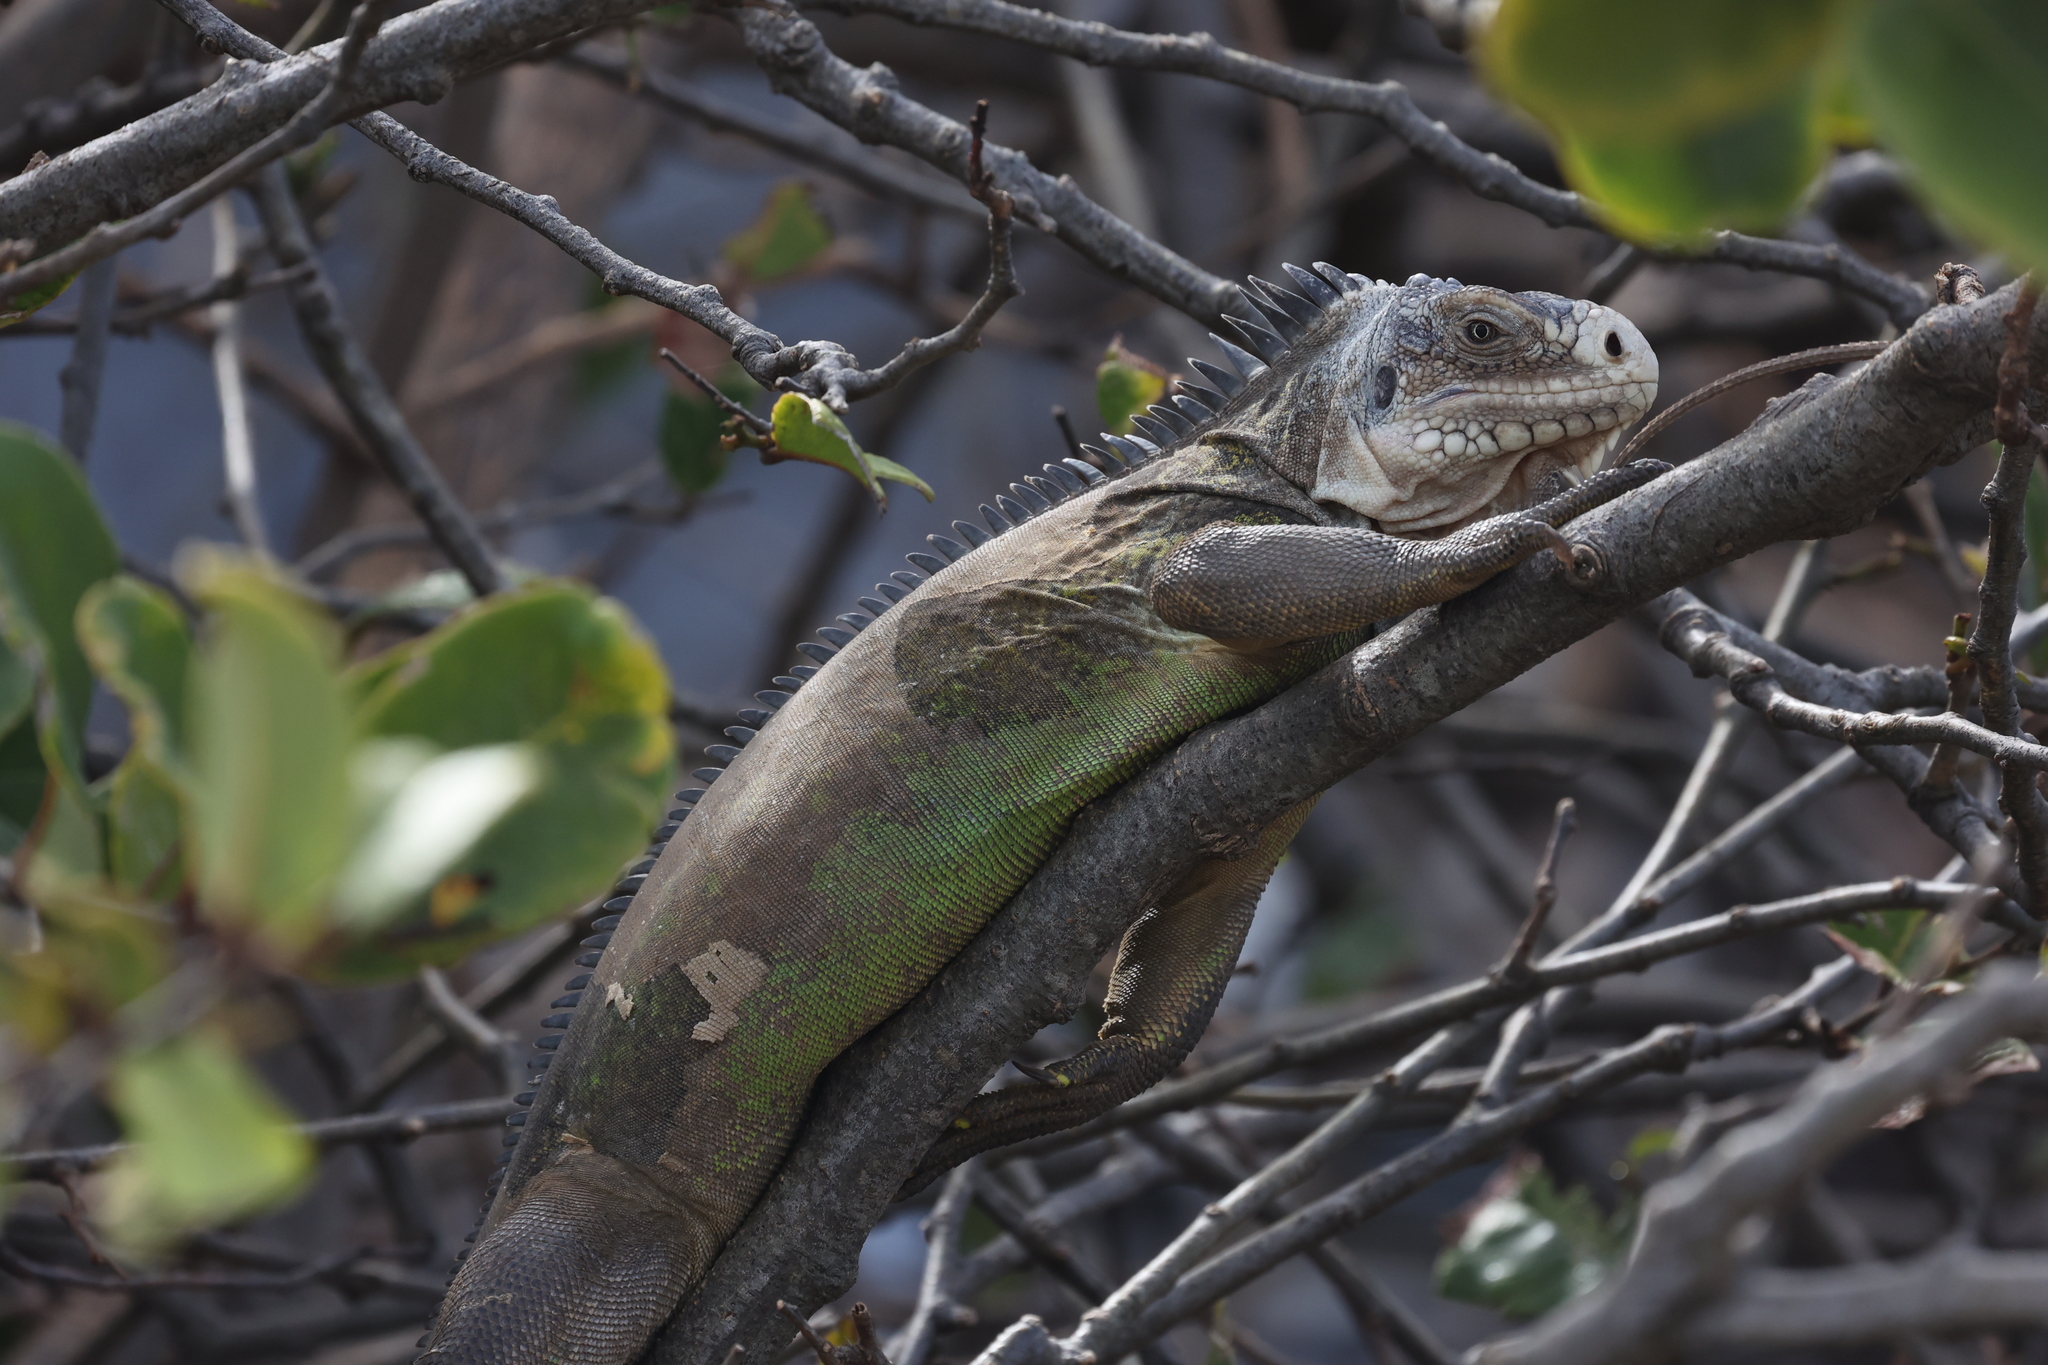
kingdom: Animalia
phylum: Chordata
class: Squamata
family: Iguanidae
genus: Iguana
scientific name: Iguana delicatissima
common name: West indian iguana
